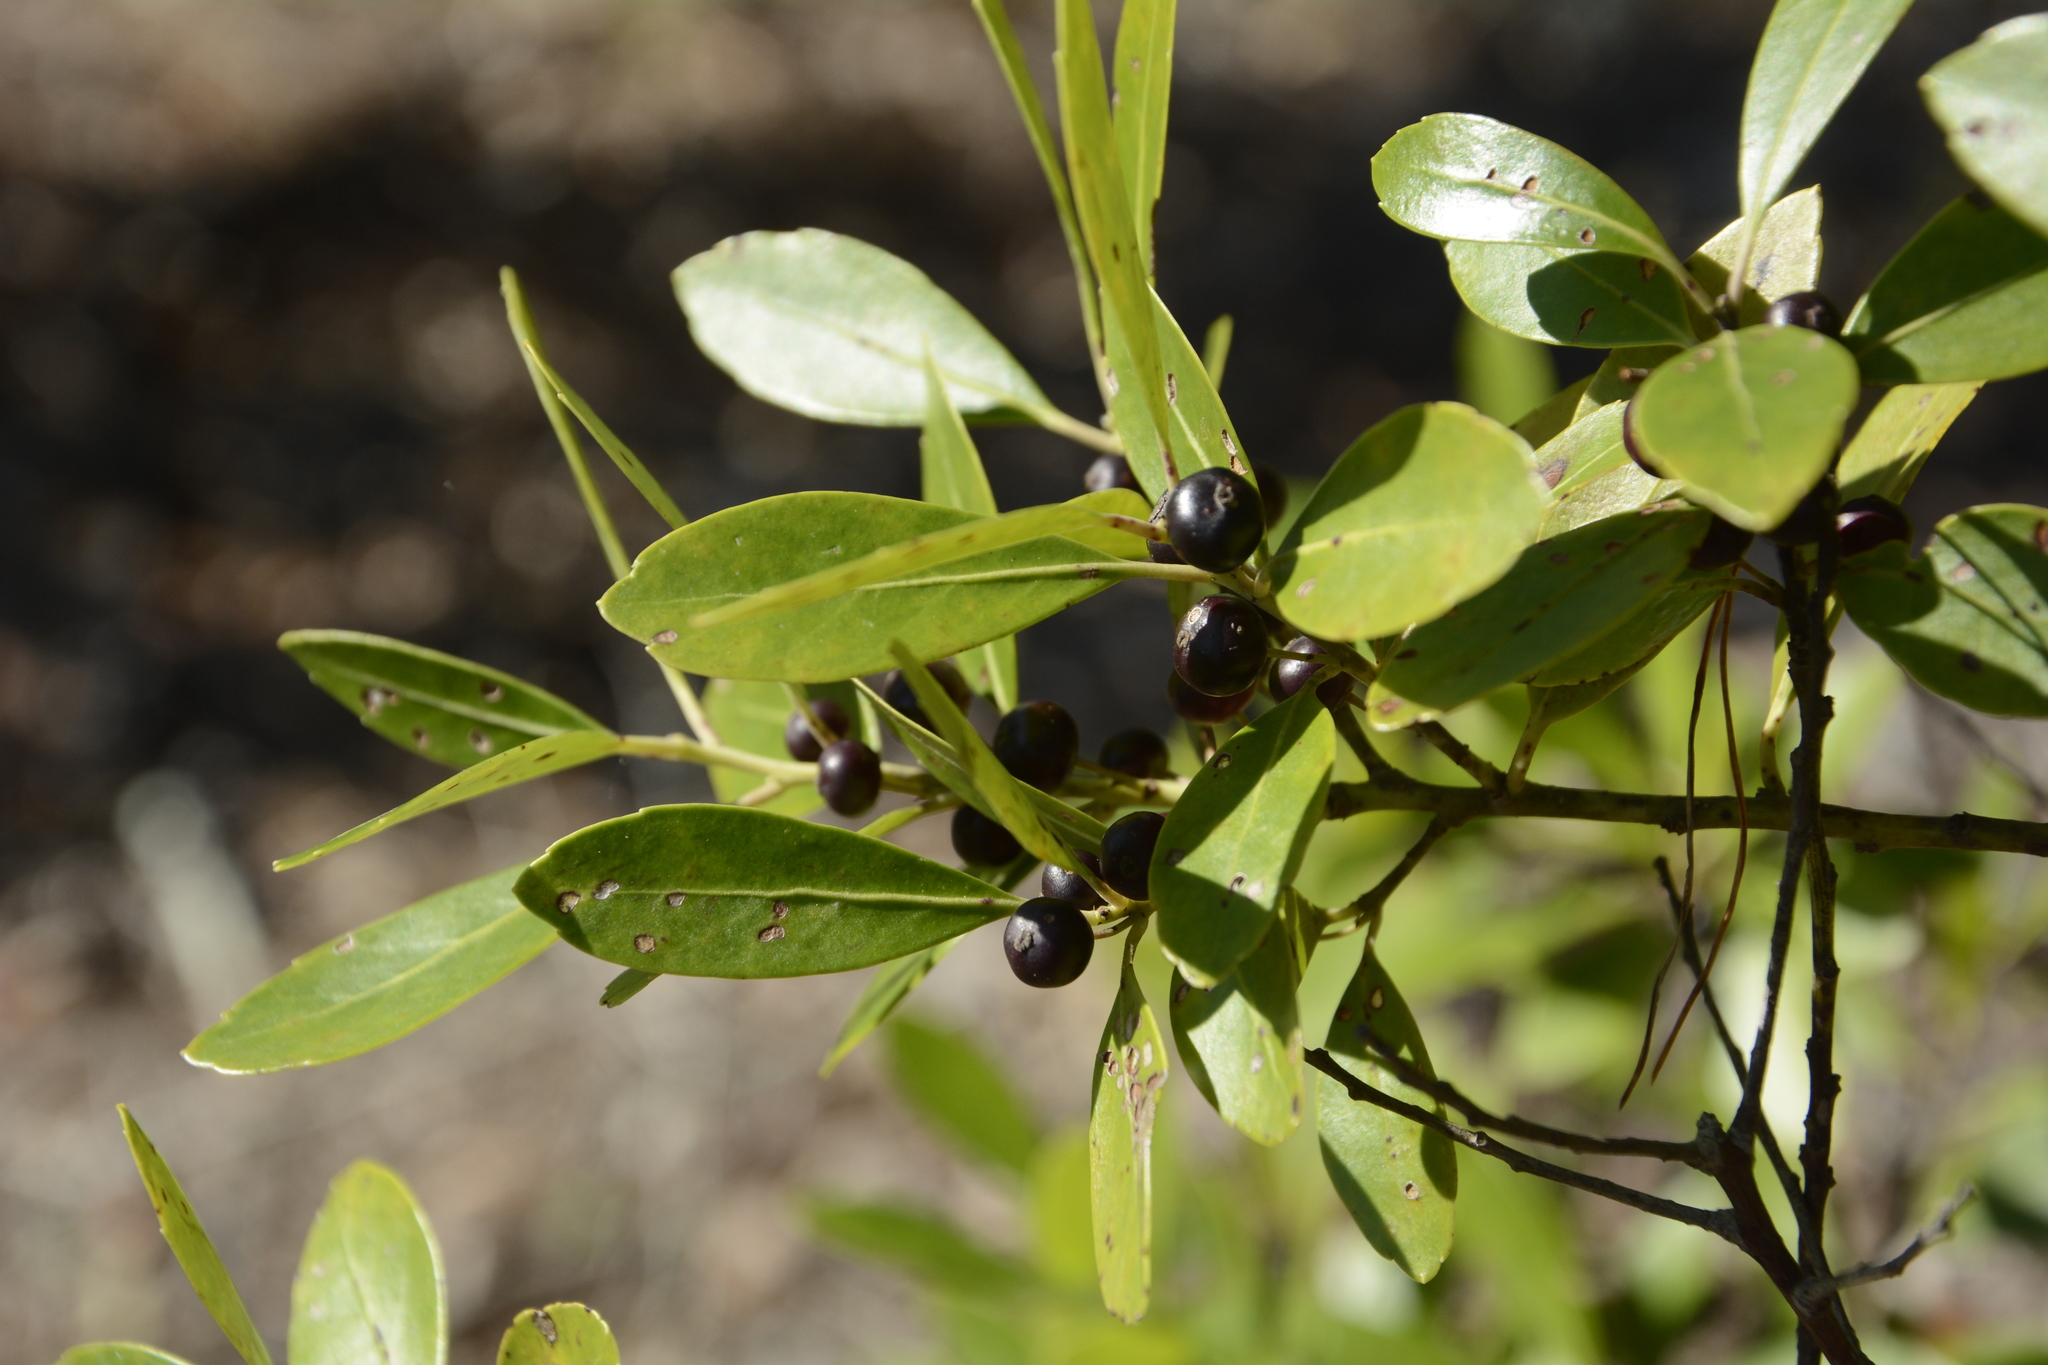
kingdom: Plantae
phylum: Tracheophyta
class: Magnoliopsida
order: Aquifoliales
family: Aquifoliaceae
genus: Ilex
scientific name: Ilex glabra
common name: Bitter gallberry
